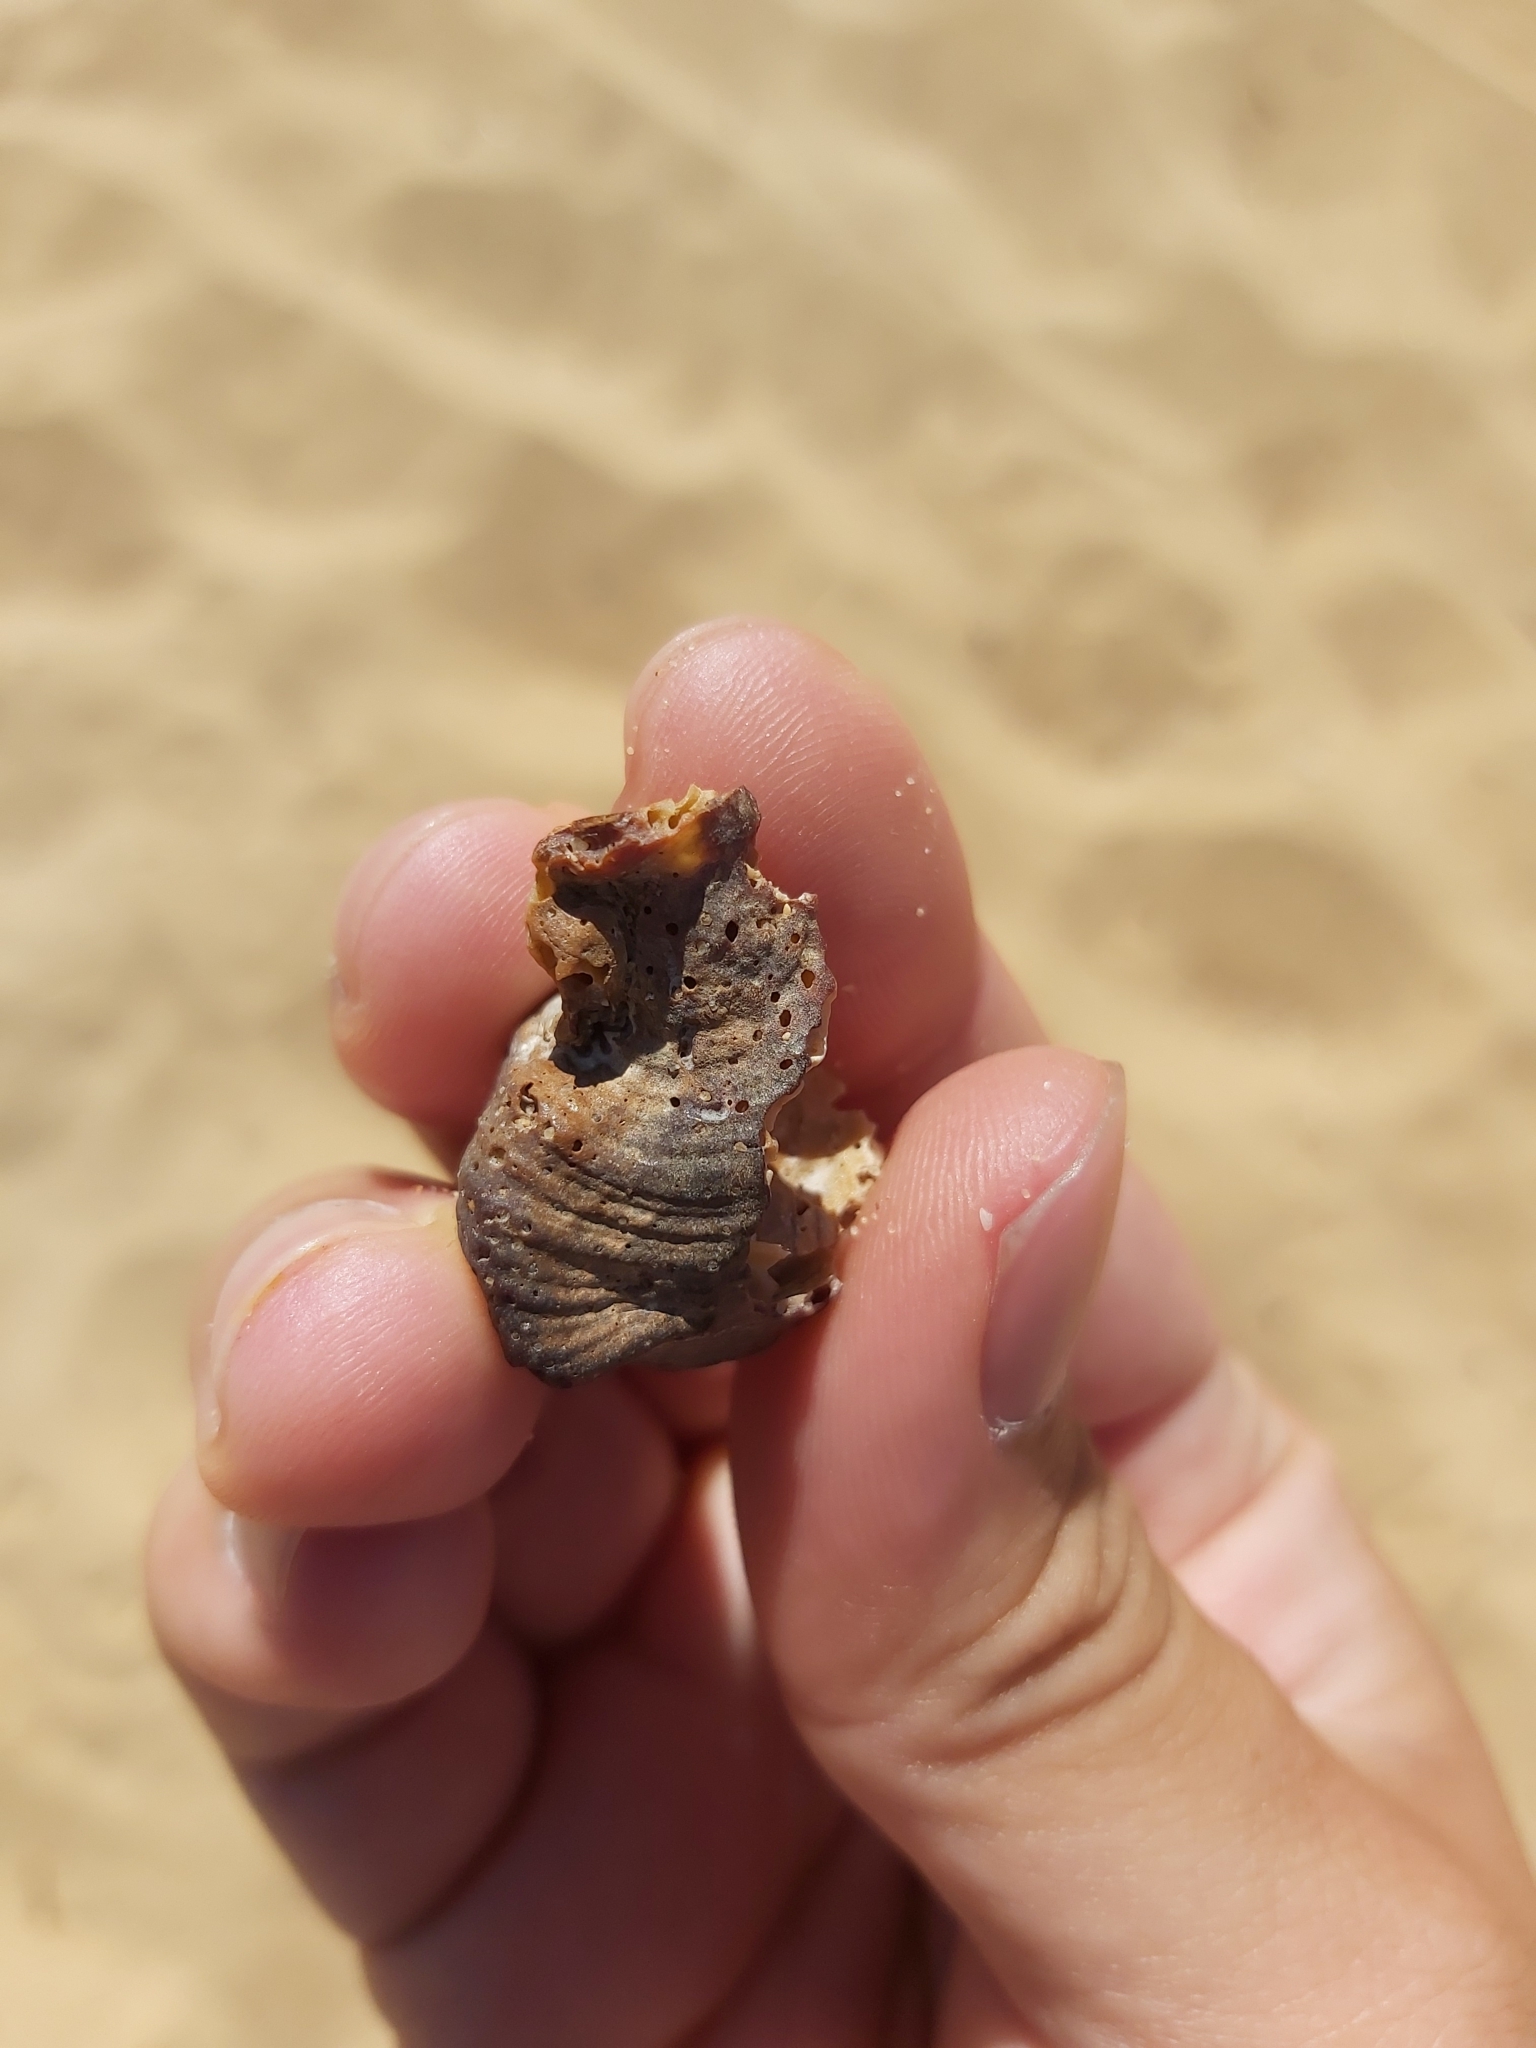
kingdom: Animalia
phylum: Mollusca
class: Gastropoda
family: Batillariidae
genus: Pyrazus
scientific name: Pyrazus ebeninus
